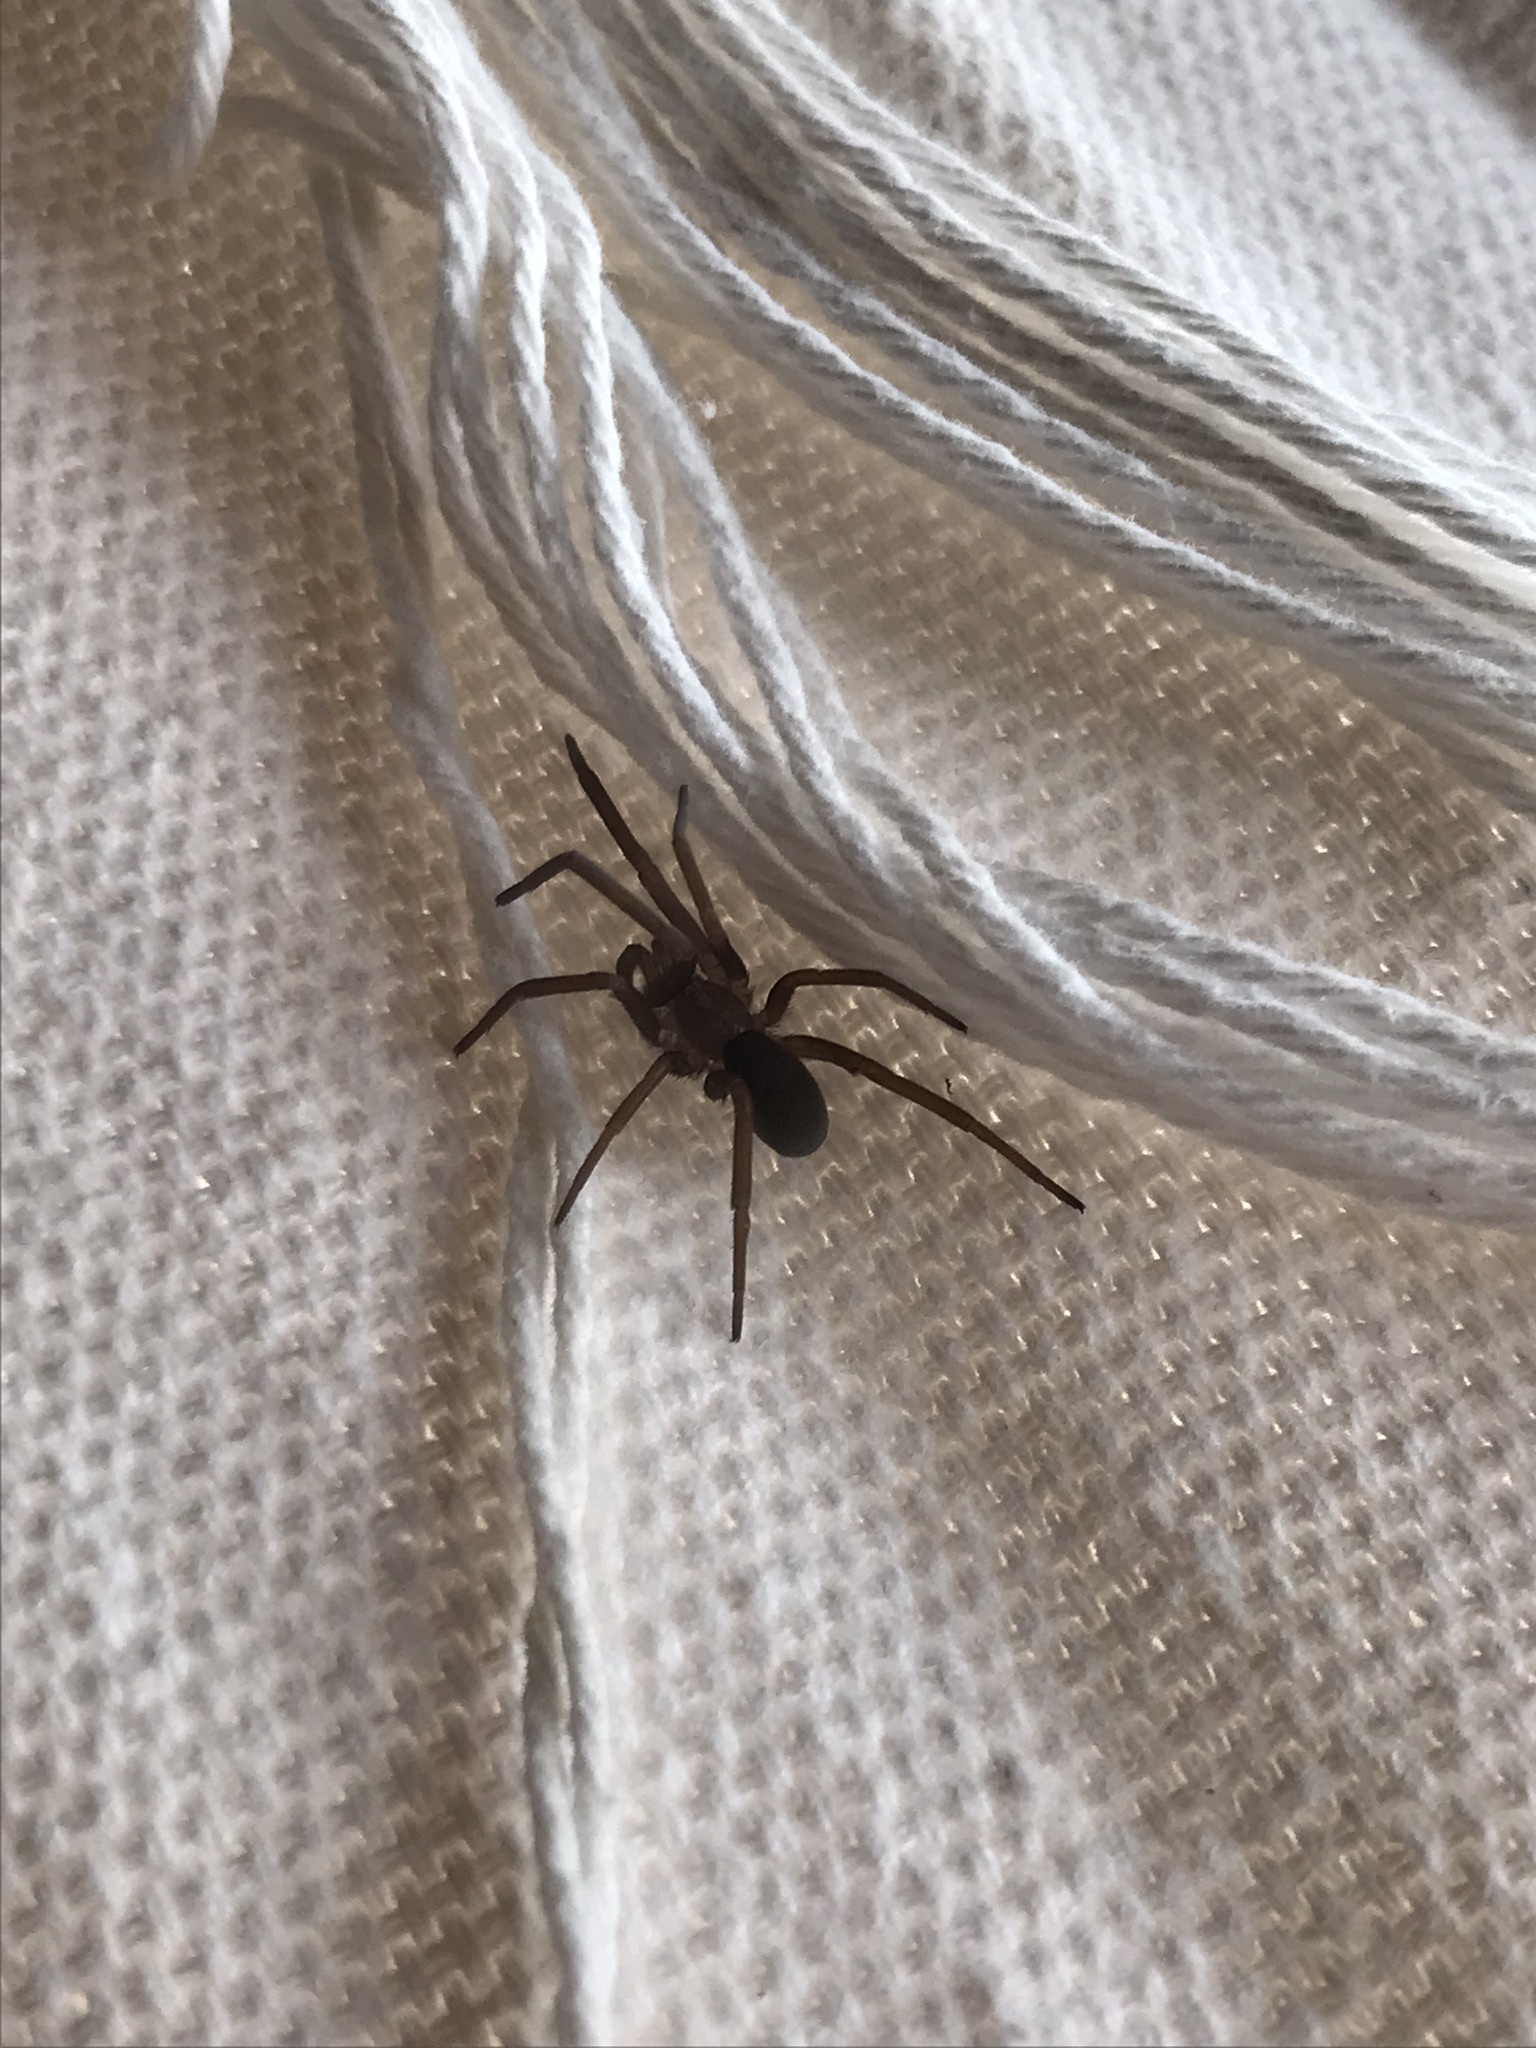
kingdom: Animalia
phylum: Arthropoda
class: Arachnida
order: Araneae
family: Filistatidae
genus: Kukulcania
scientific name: Kukulcania hibernalis
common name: Crevice weaver
